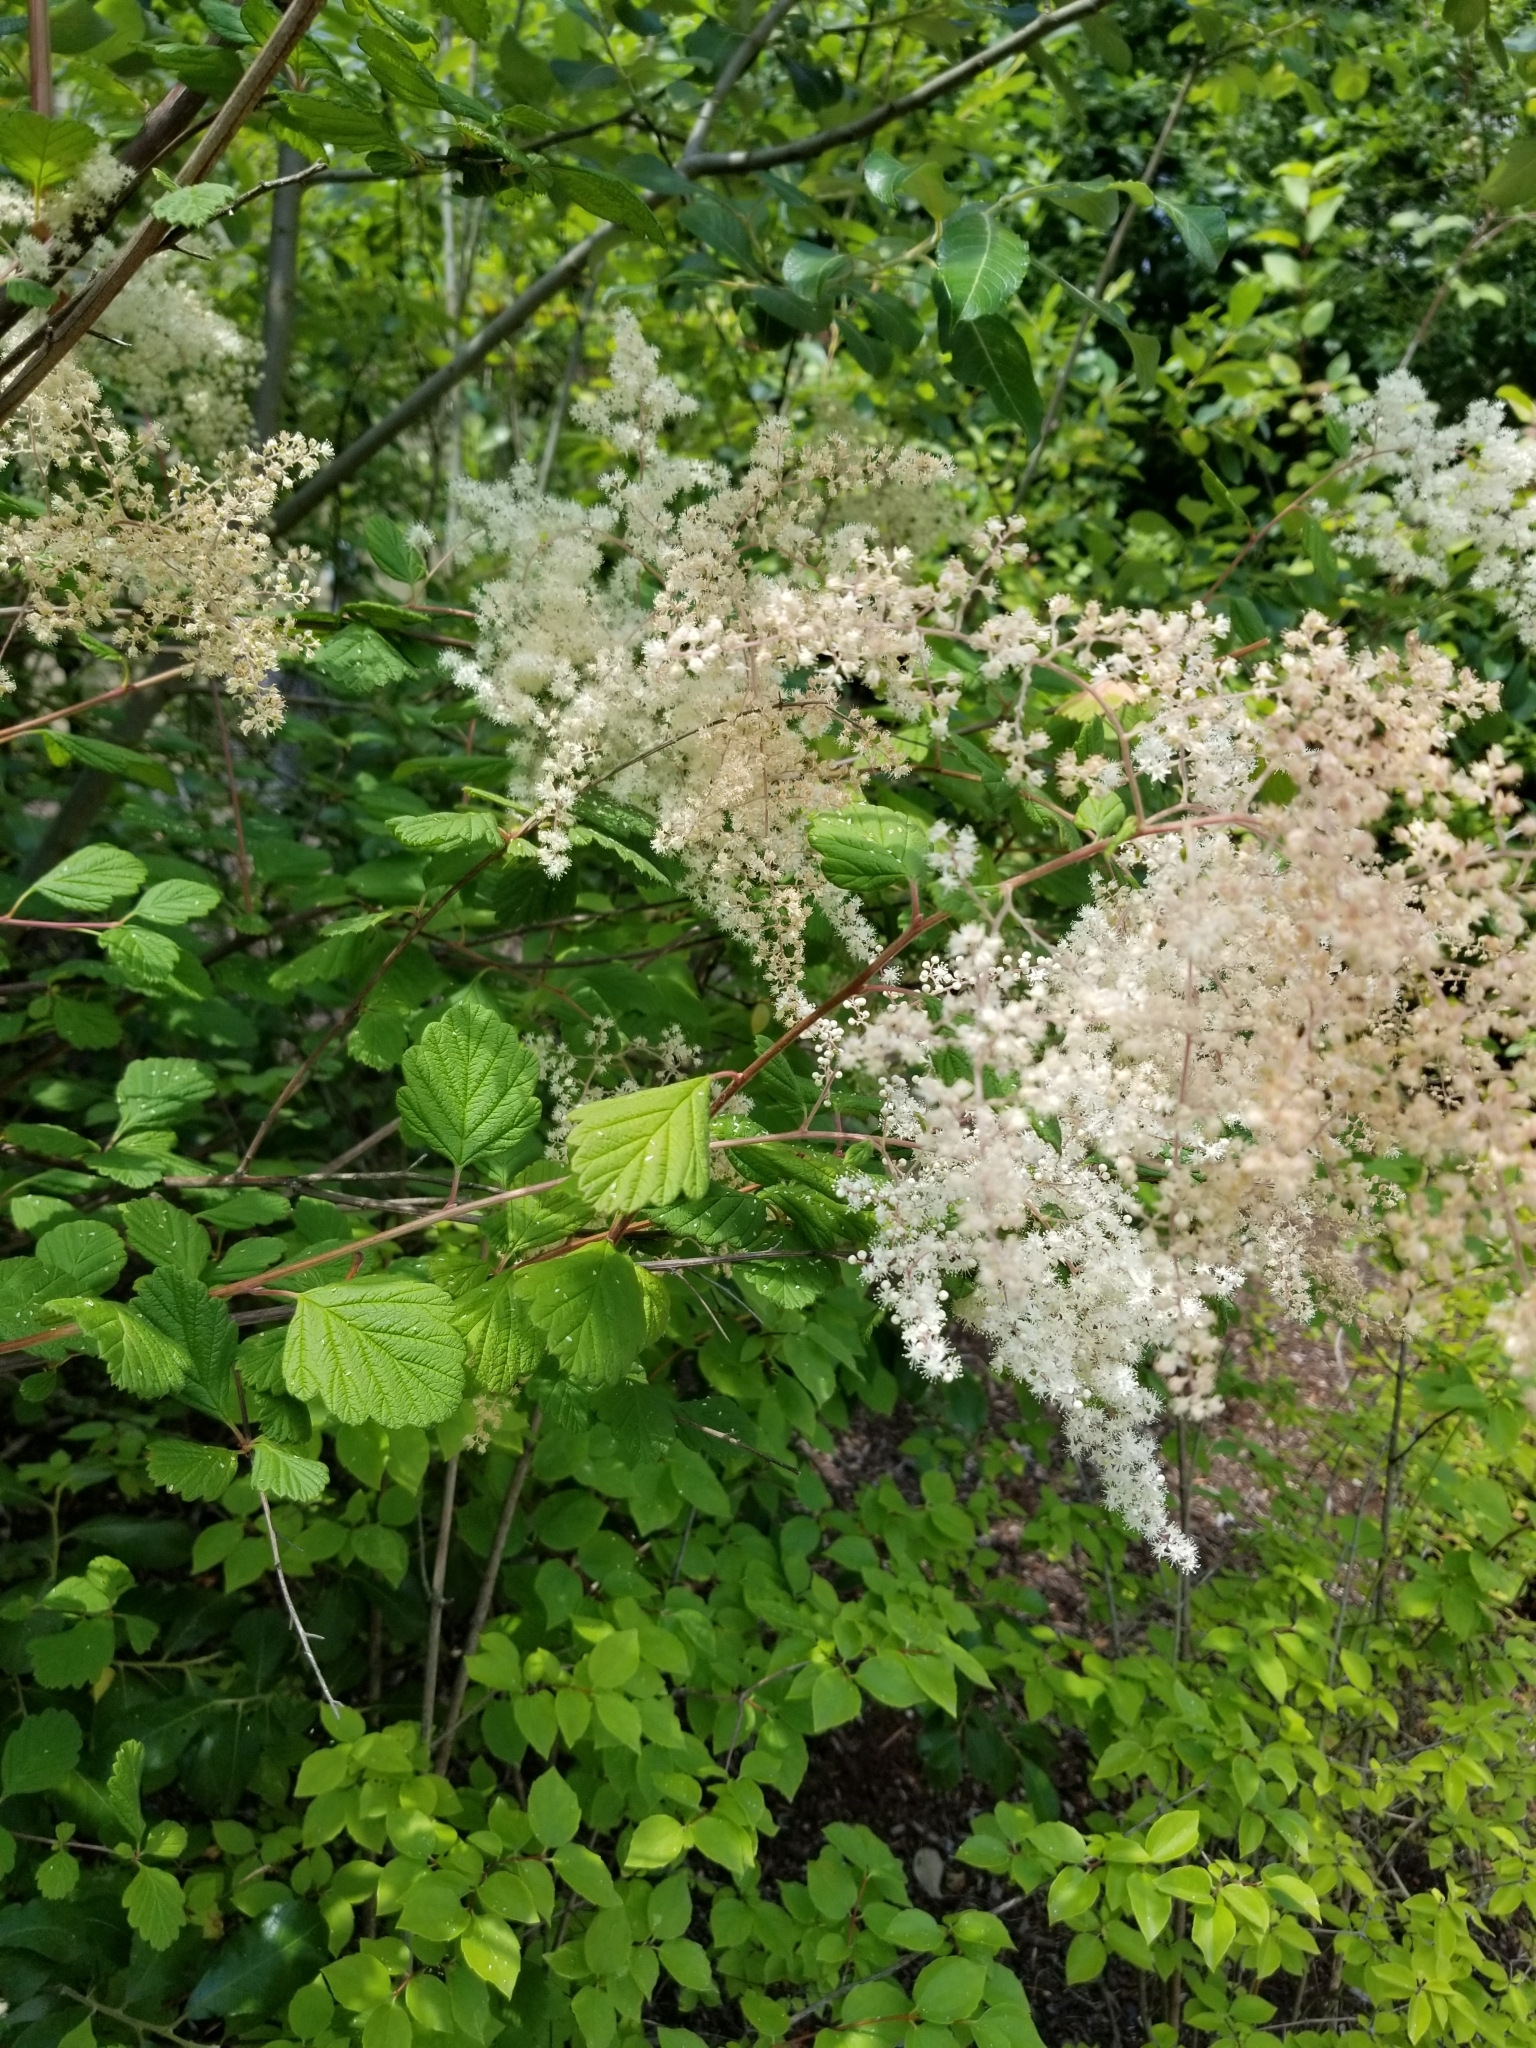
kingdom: Plantae
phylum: Tracheophyta
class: Magnoliopsida
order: Rosales
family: Rosaceae
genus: Holodiscus
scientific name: Holodiscus discolor
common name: Oceanspray
